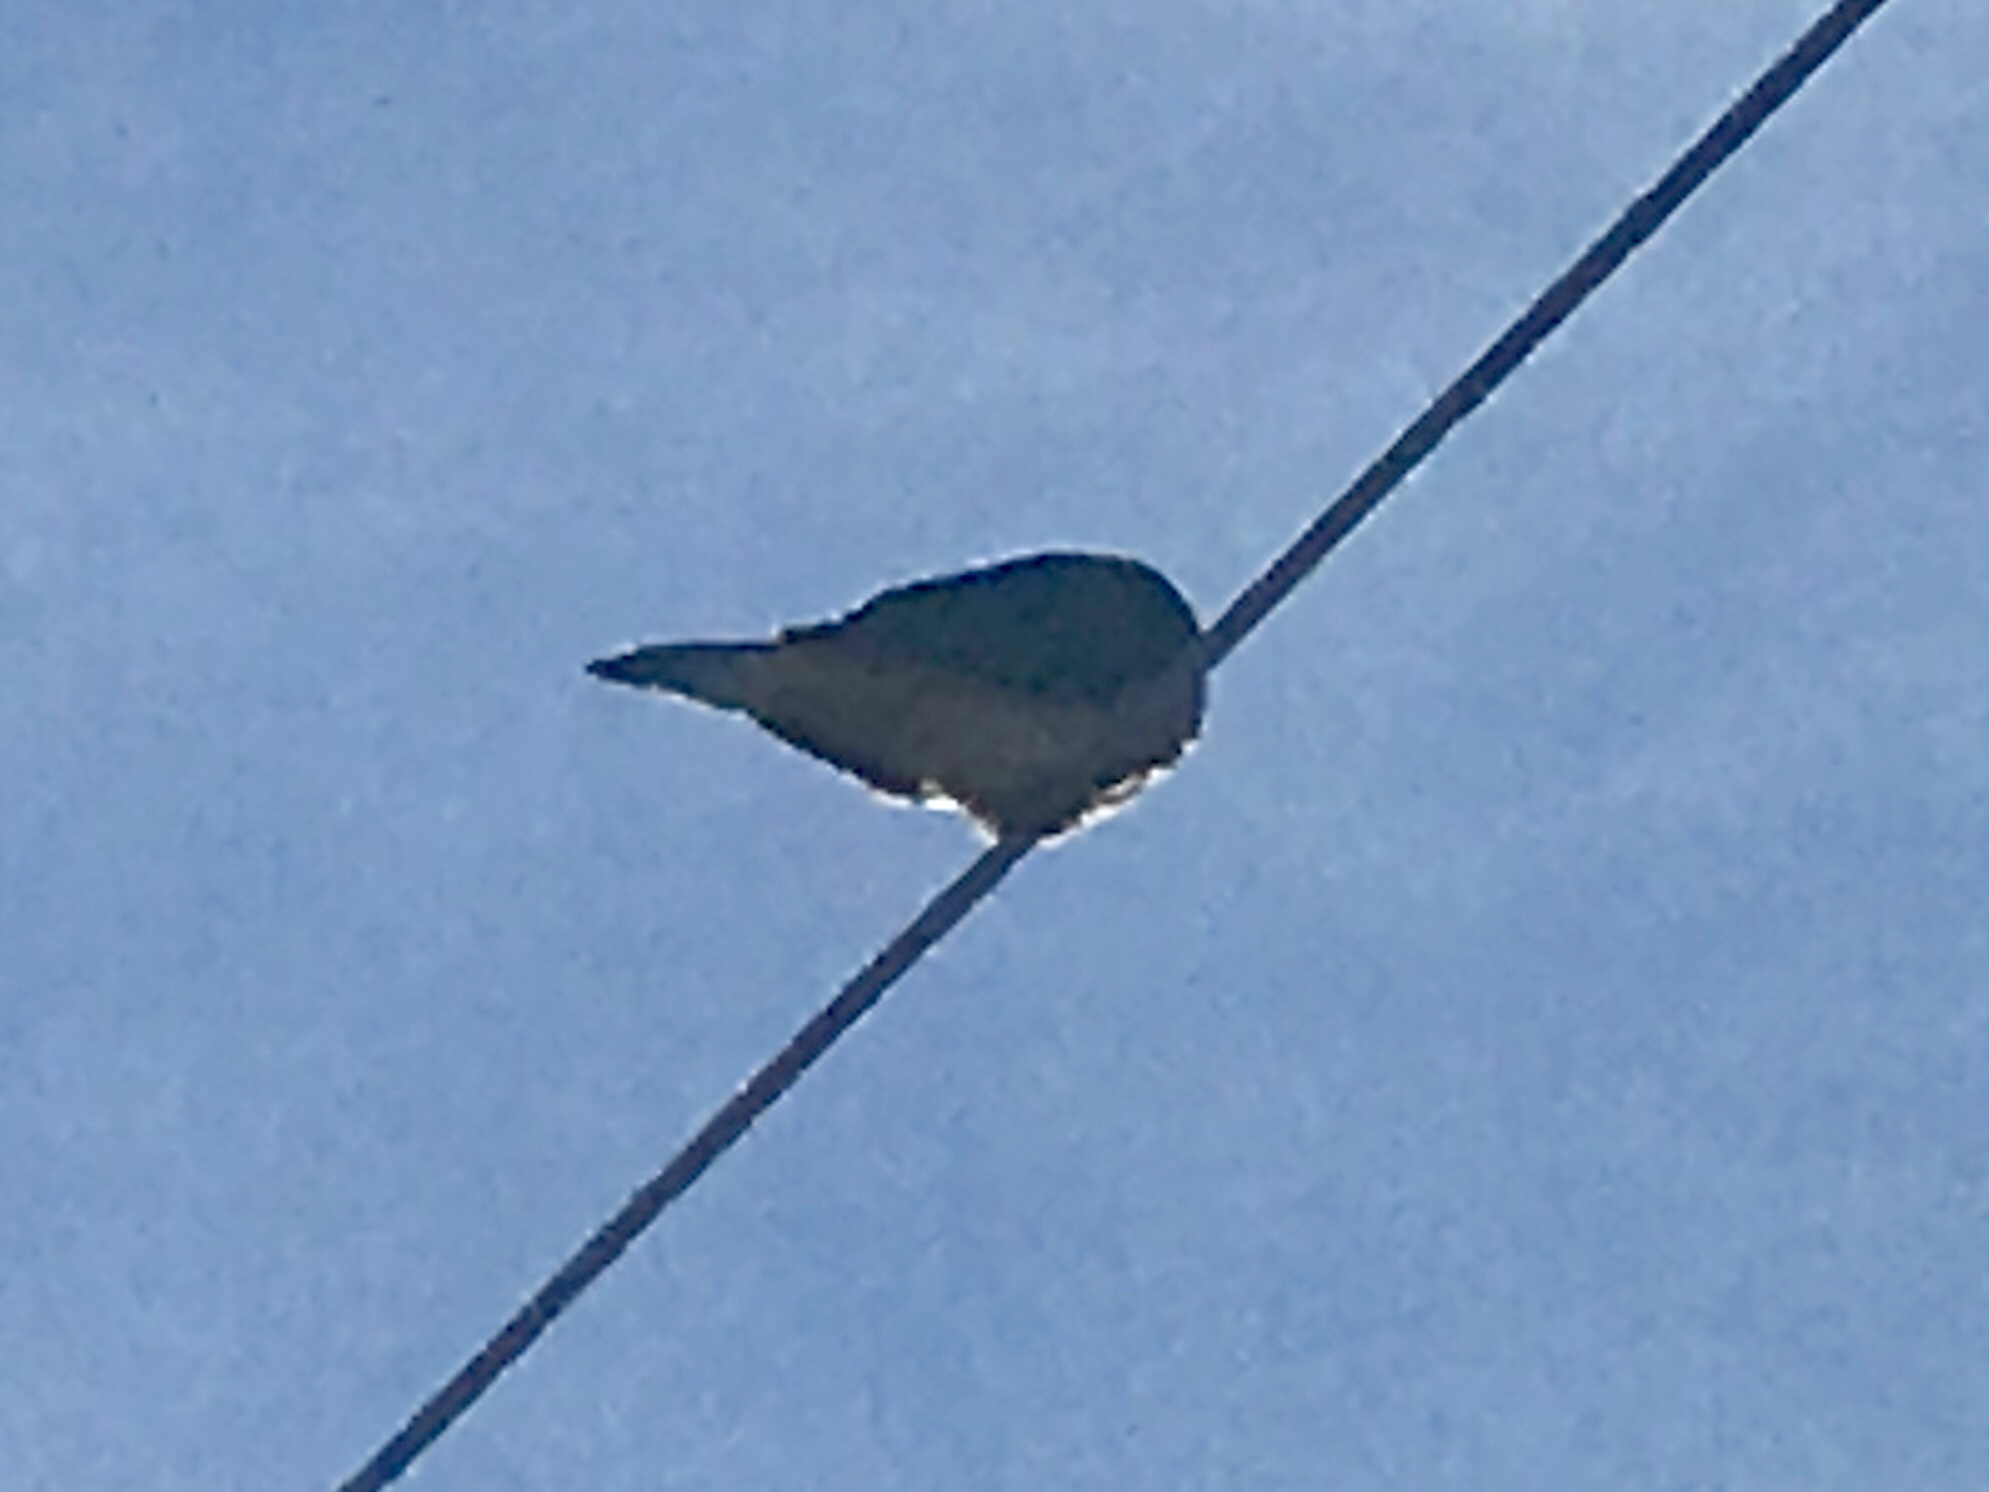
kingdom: Animalia
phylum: Chordata
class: Aves
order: Columbiformes
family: Columbidae
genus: Zenaida
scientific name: Zenaida macroura
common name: Mourning dove
